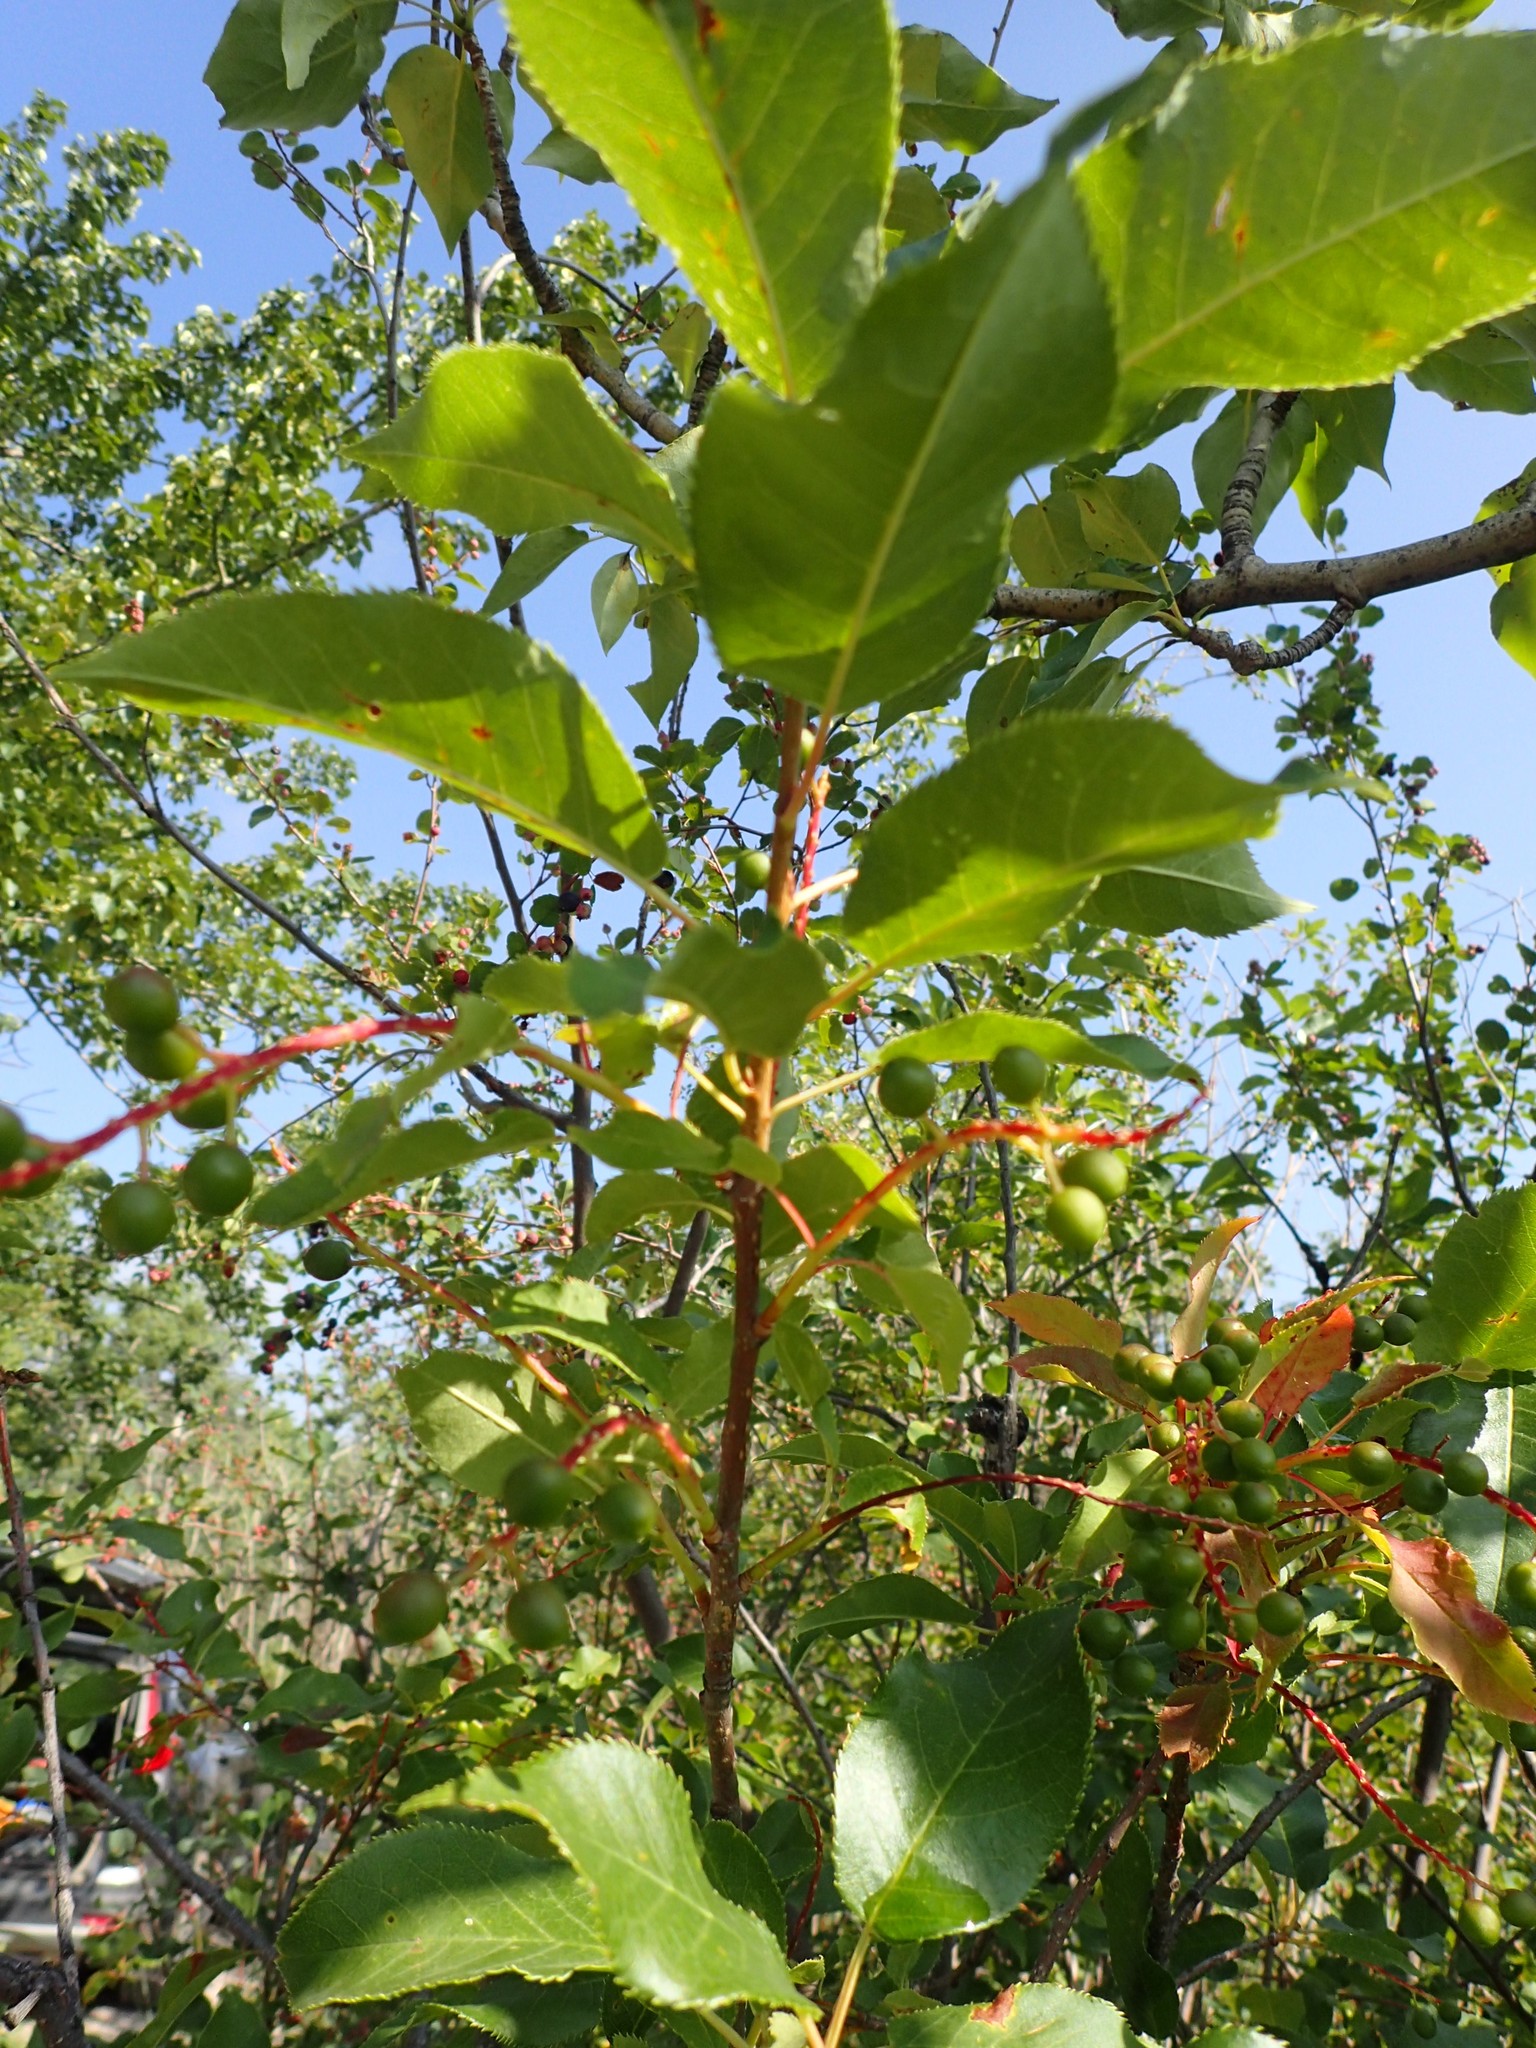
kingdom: Plantae
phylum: Tracheophyta
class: Magnoliopsida
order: Rosales
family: Rosaceae
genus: Prunus
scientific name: Prunus virginiana
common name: Chokecherry
